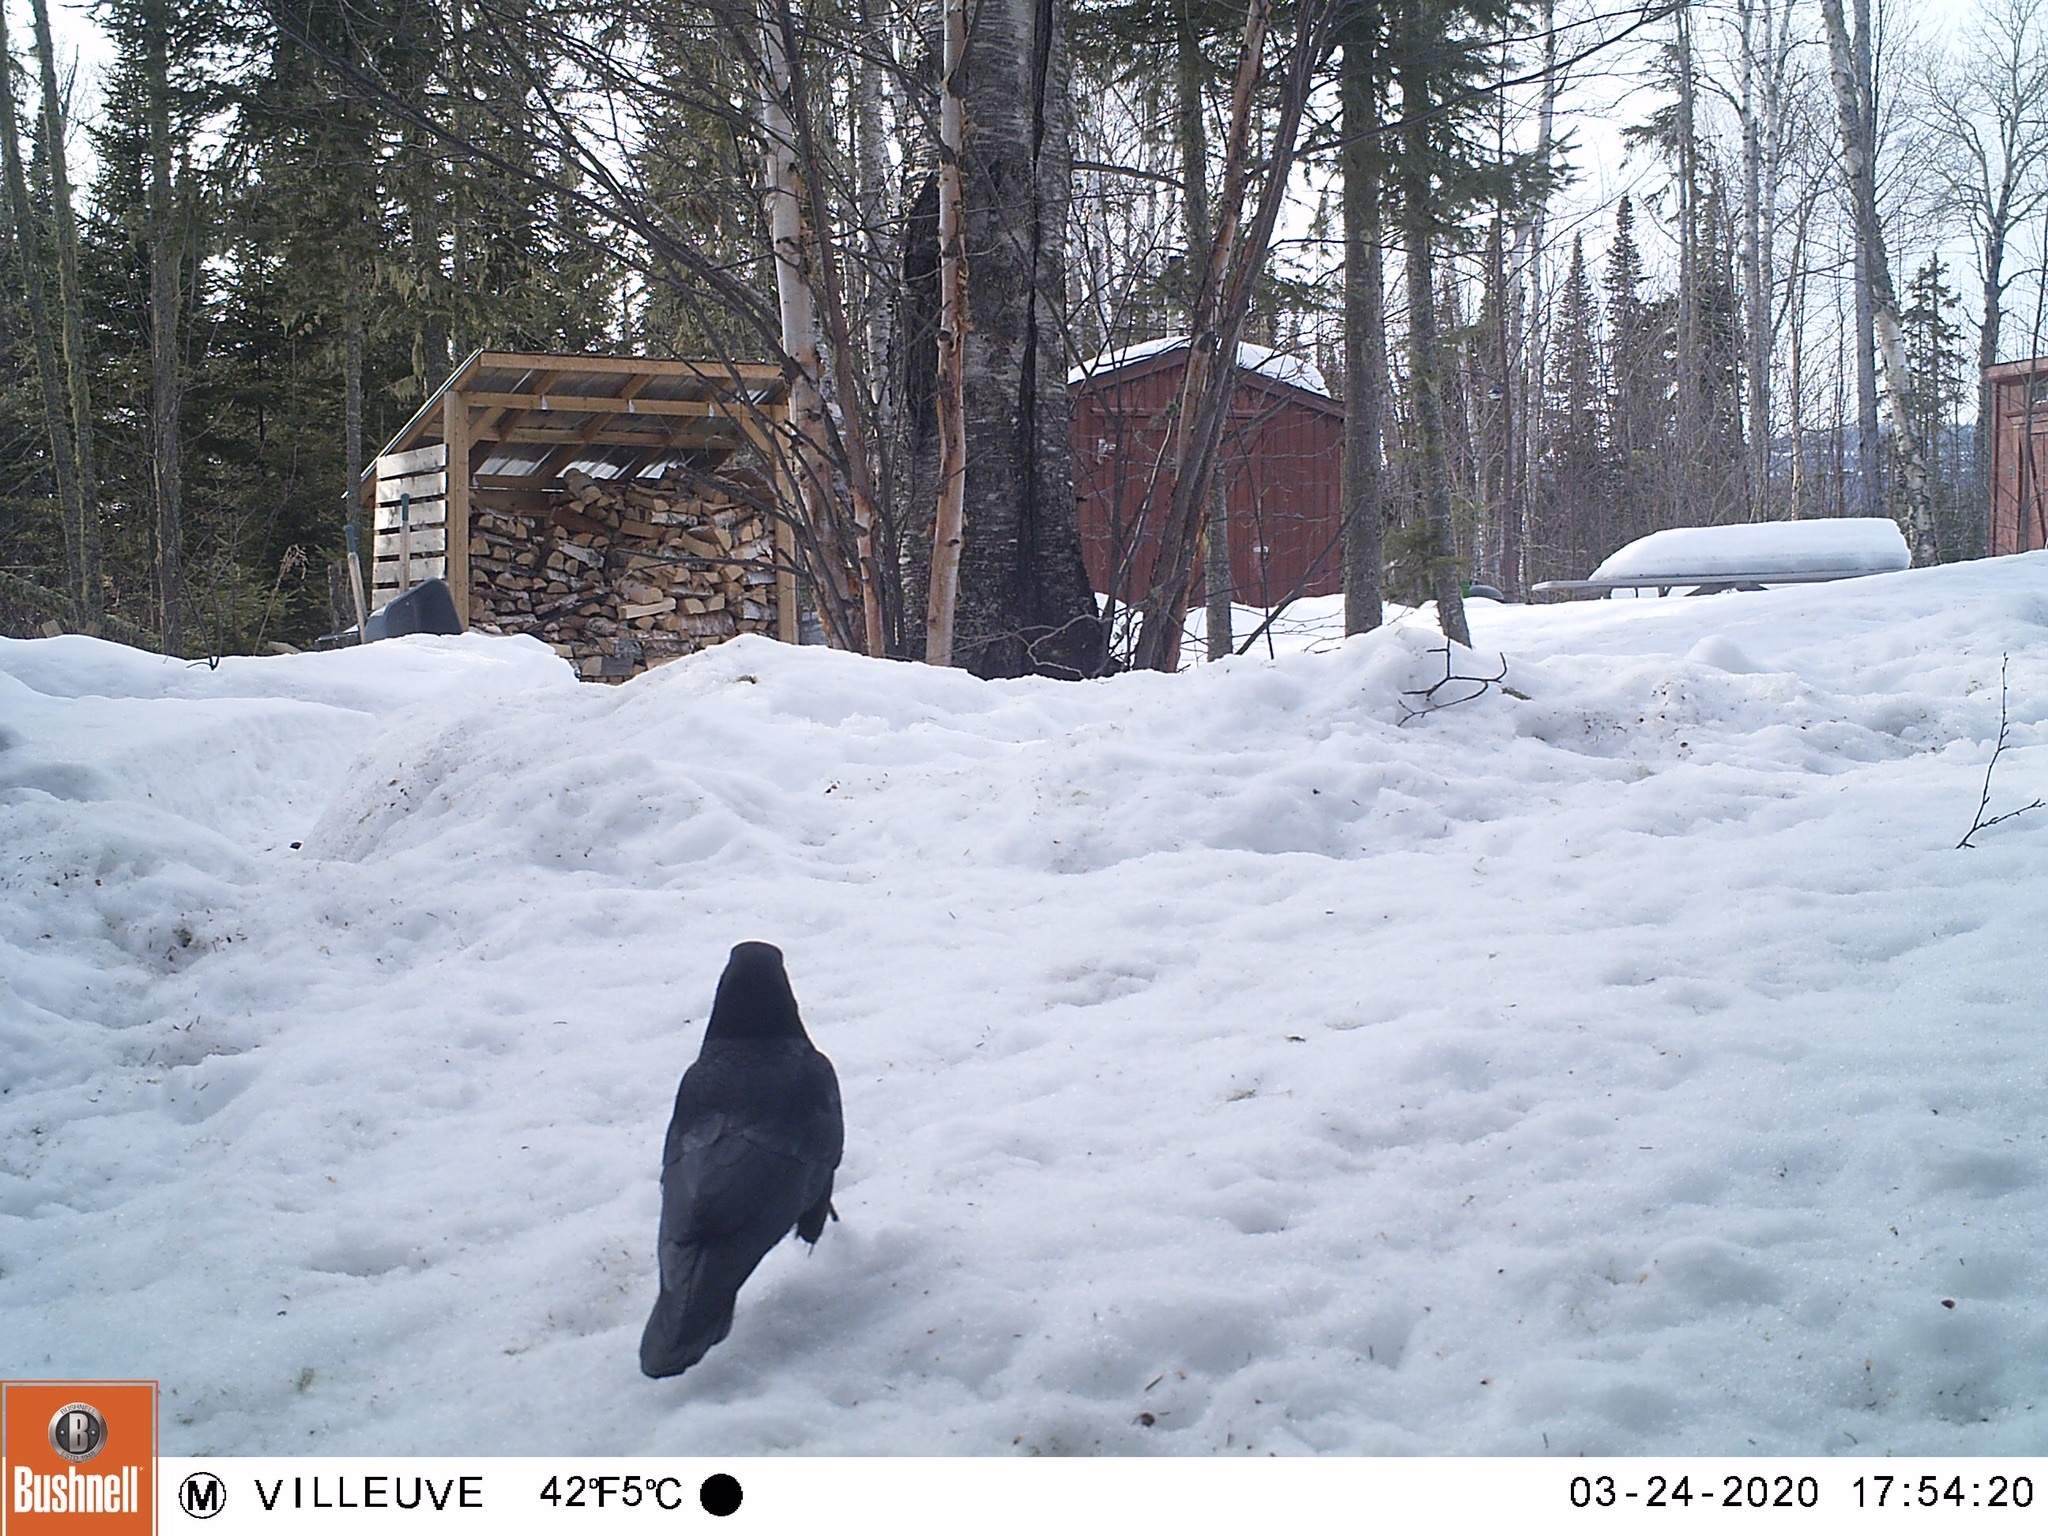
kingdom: Animalia
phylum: Chordata
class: Aves
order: Passeriformes
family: Corvidae
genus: Corvus
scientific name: Corvus brachyrhynchos
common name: American crow
